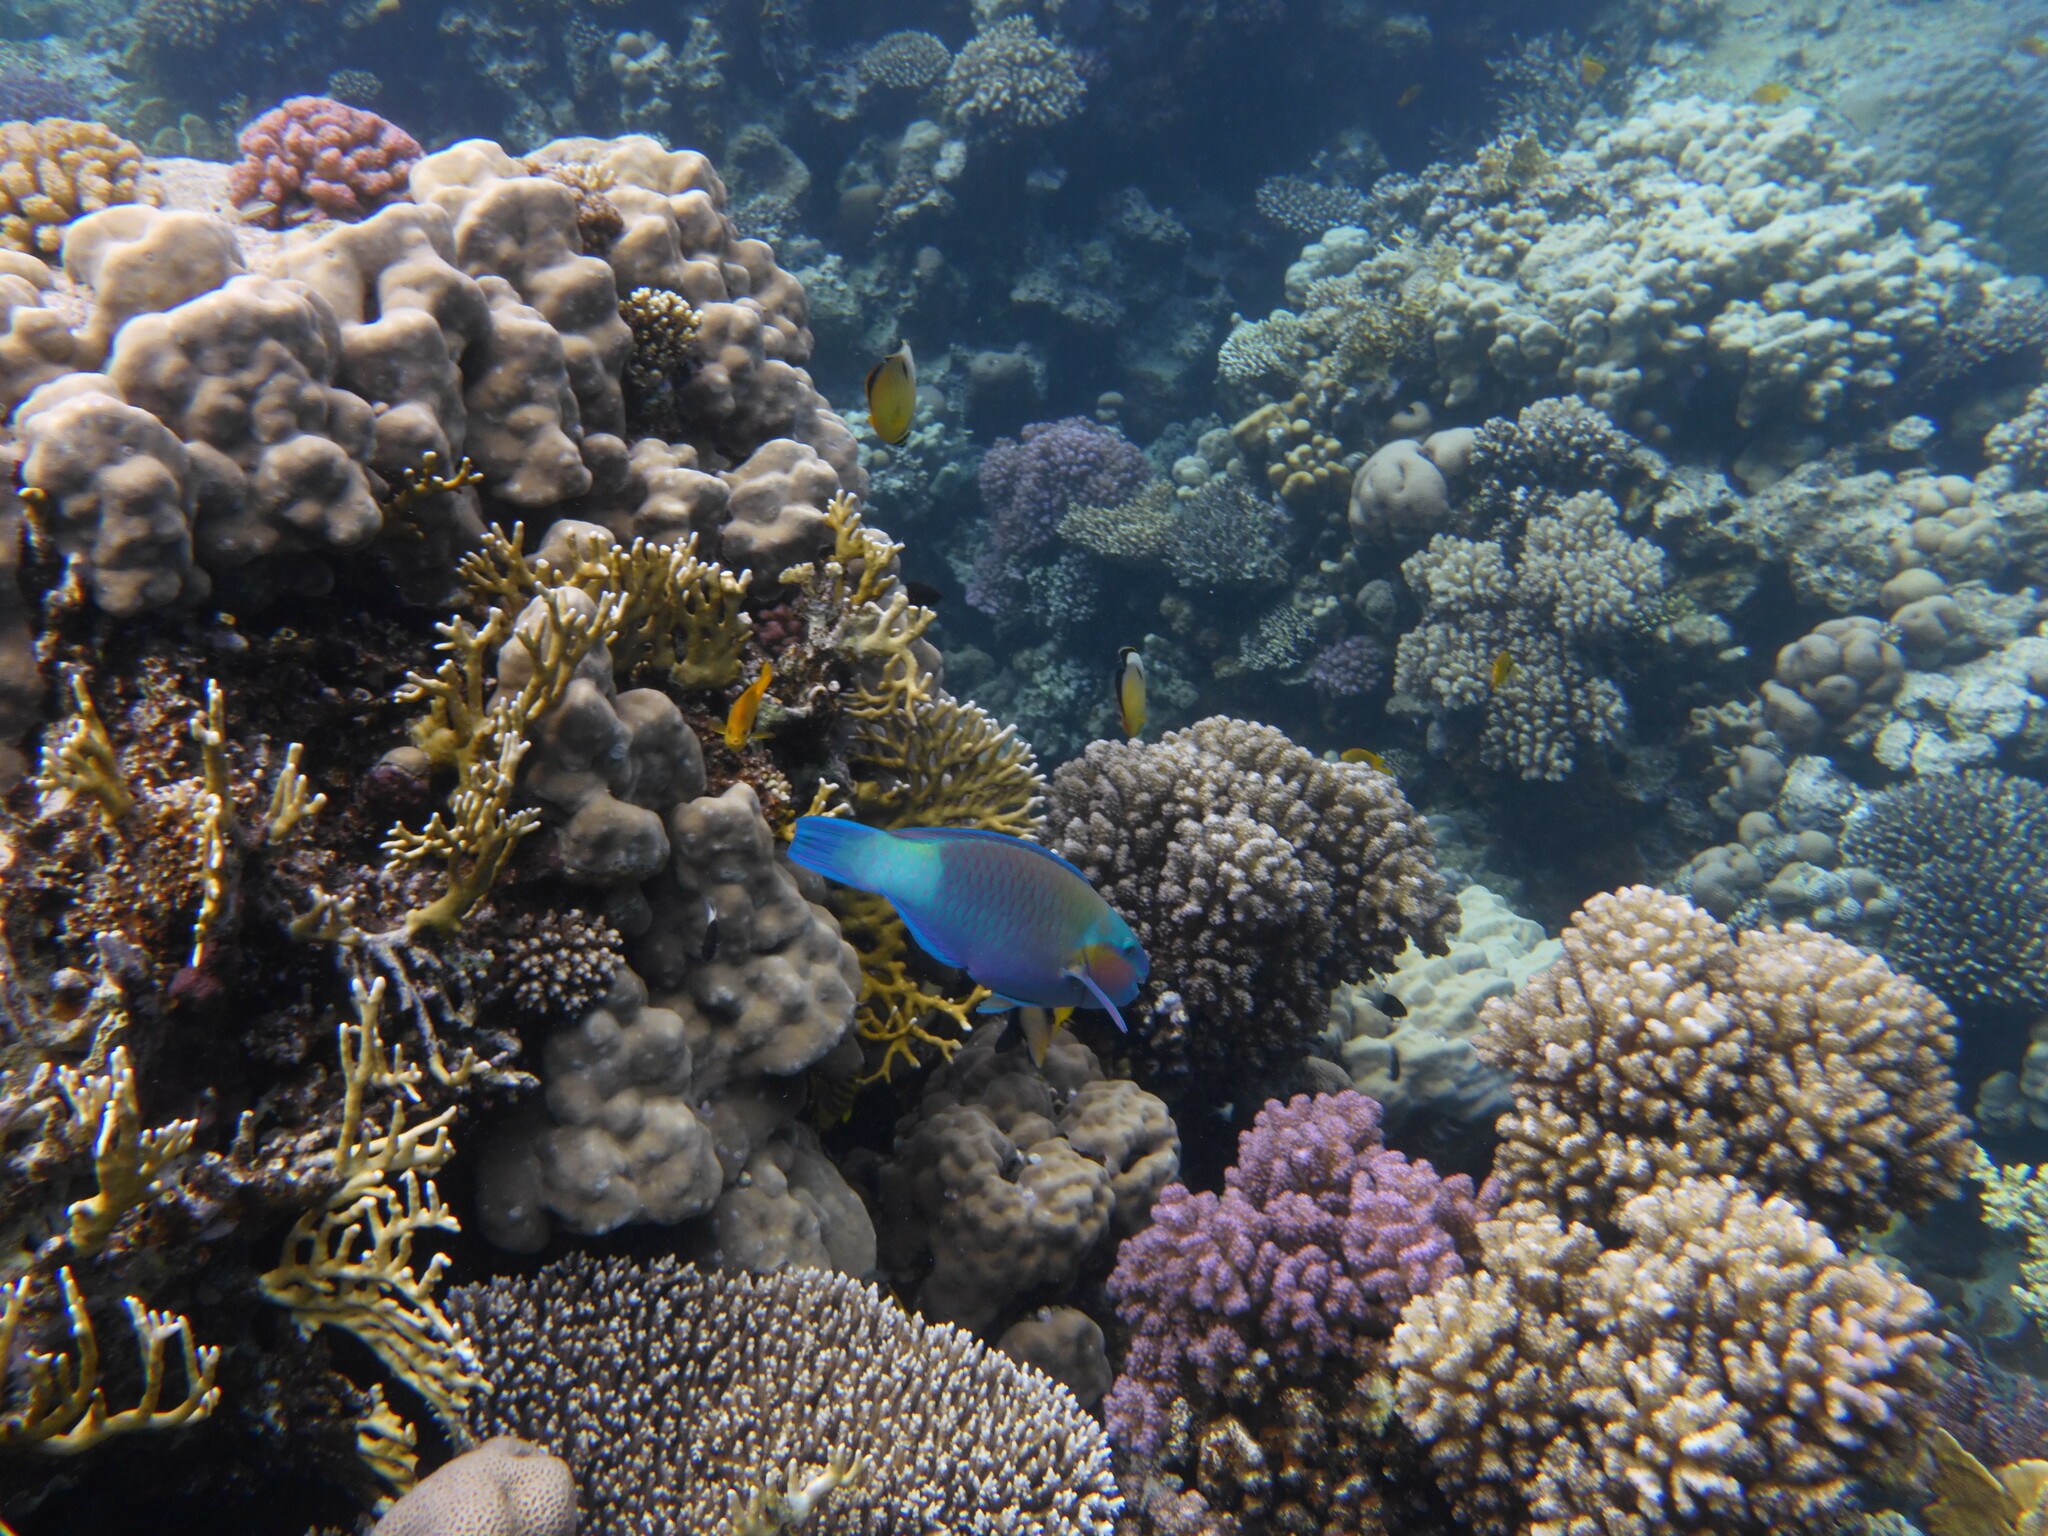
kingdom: Animalia
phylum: Chordata
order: Perciformes
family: Scaridae
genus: Chlorurus
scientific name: Chlorurus sordidus
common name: Bullethead parrotfish
